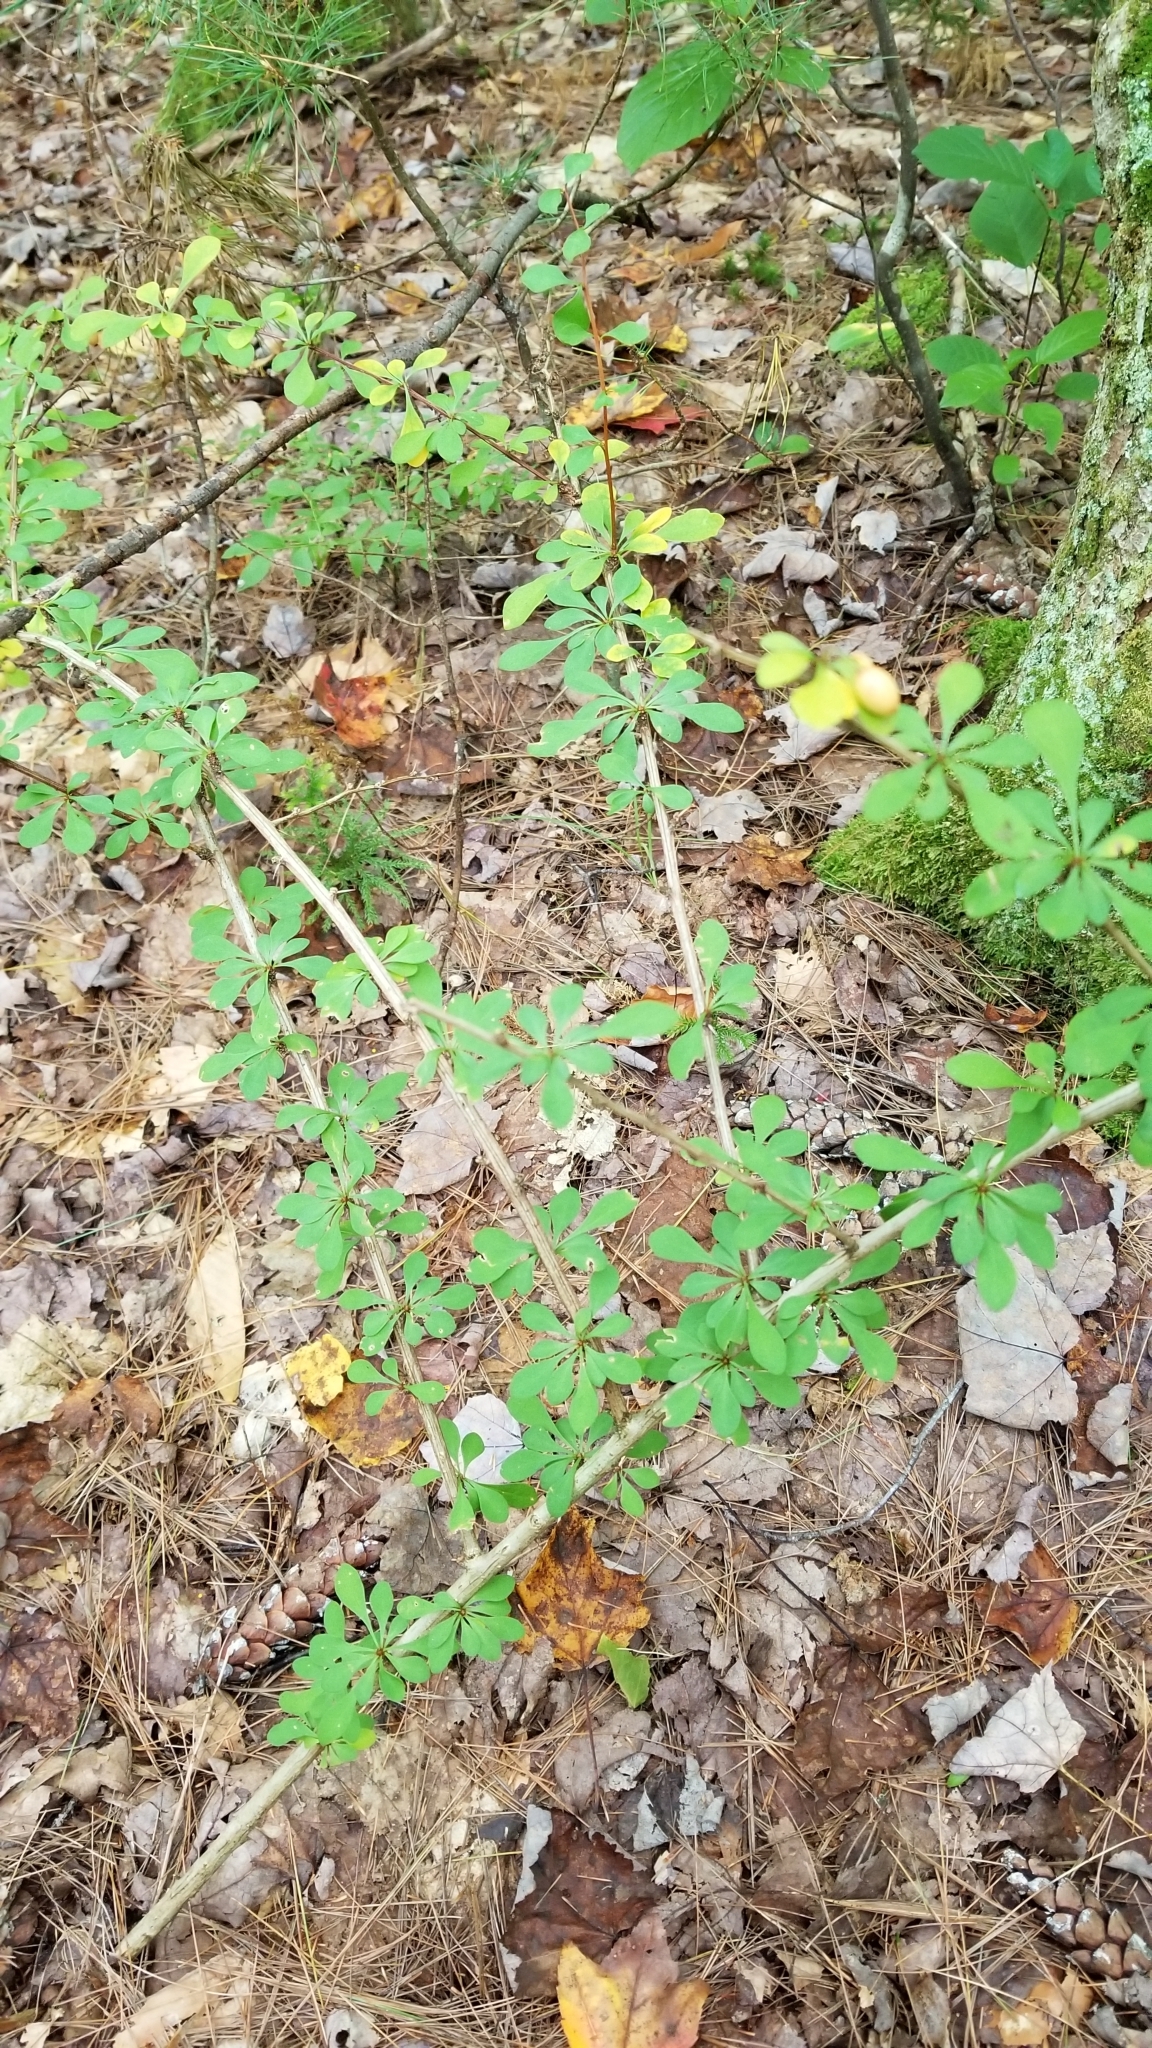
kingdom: Plantae
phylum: Tracheophyta
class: Magnoliopsida
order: Ranunculales
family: Berberidaceae
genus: Berberis
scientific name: Berberis thunbergii
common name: Japanese barberry
